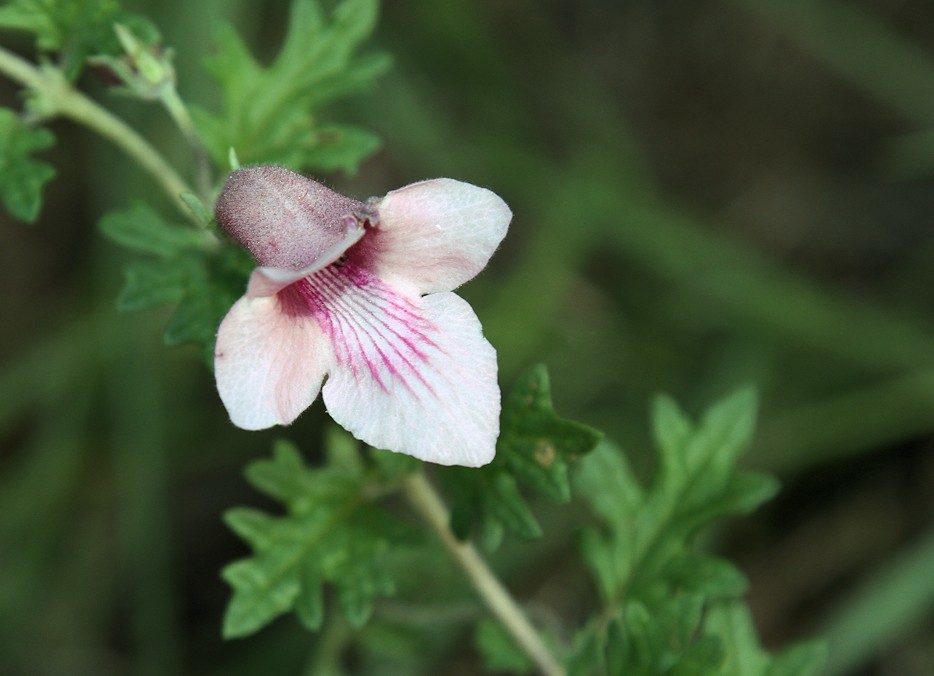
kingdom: Plantae
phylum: Tracheophyta
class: Magnoliopsida
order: Lamiales
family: Pedaliaceae
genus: Dicerocaryum
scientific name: Dicerocaryum senecioides
